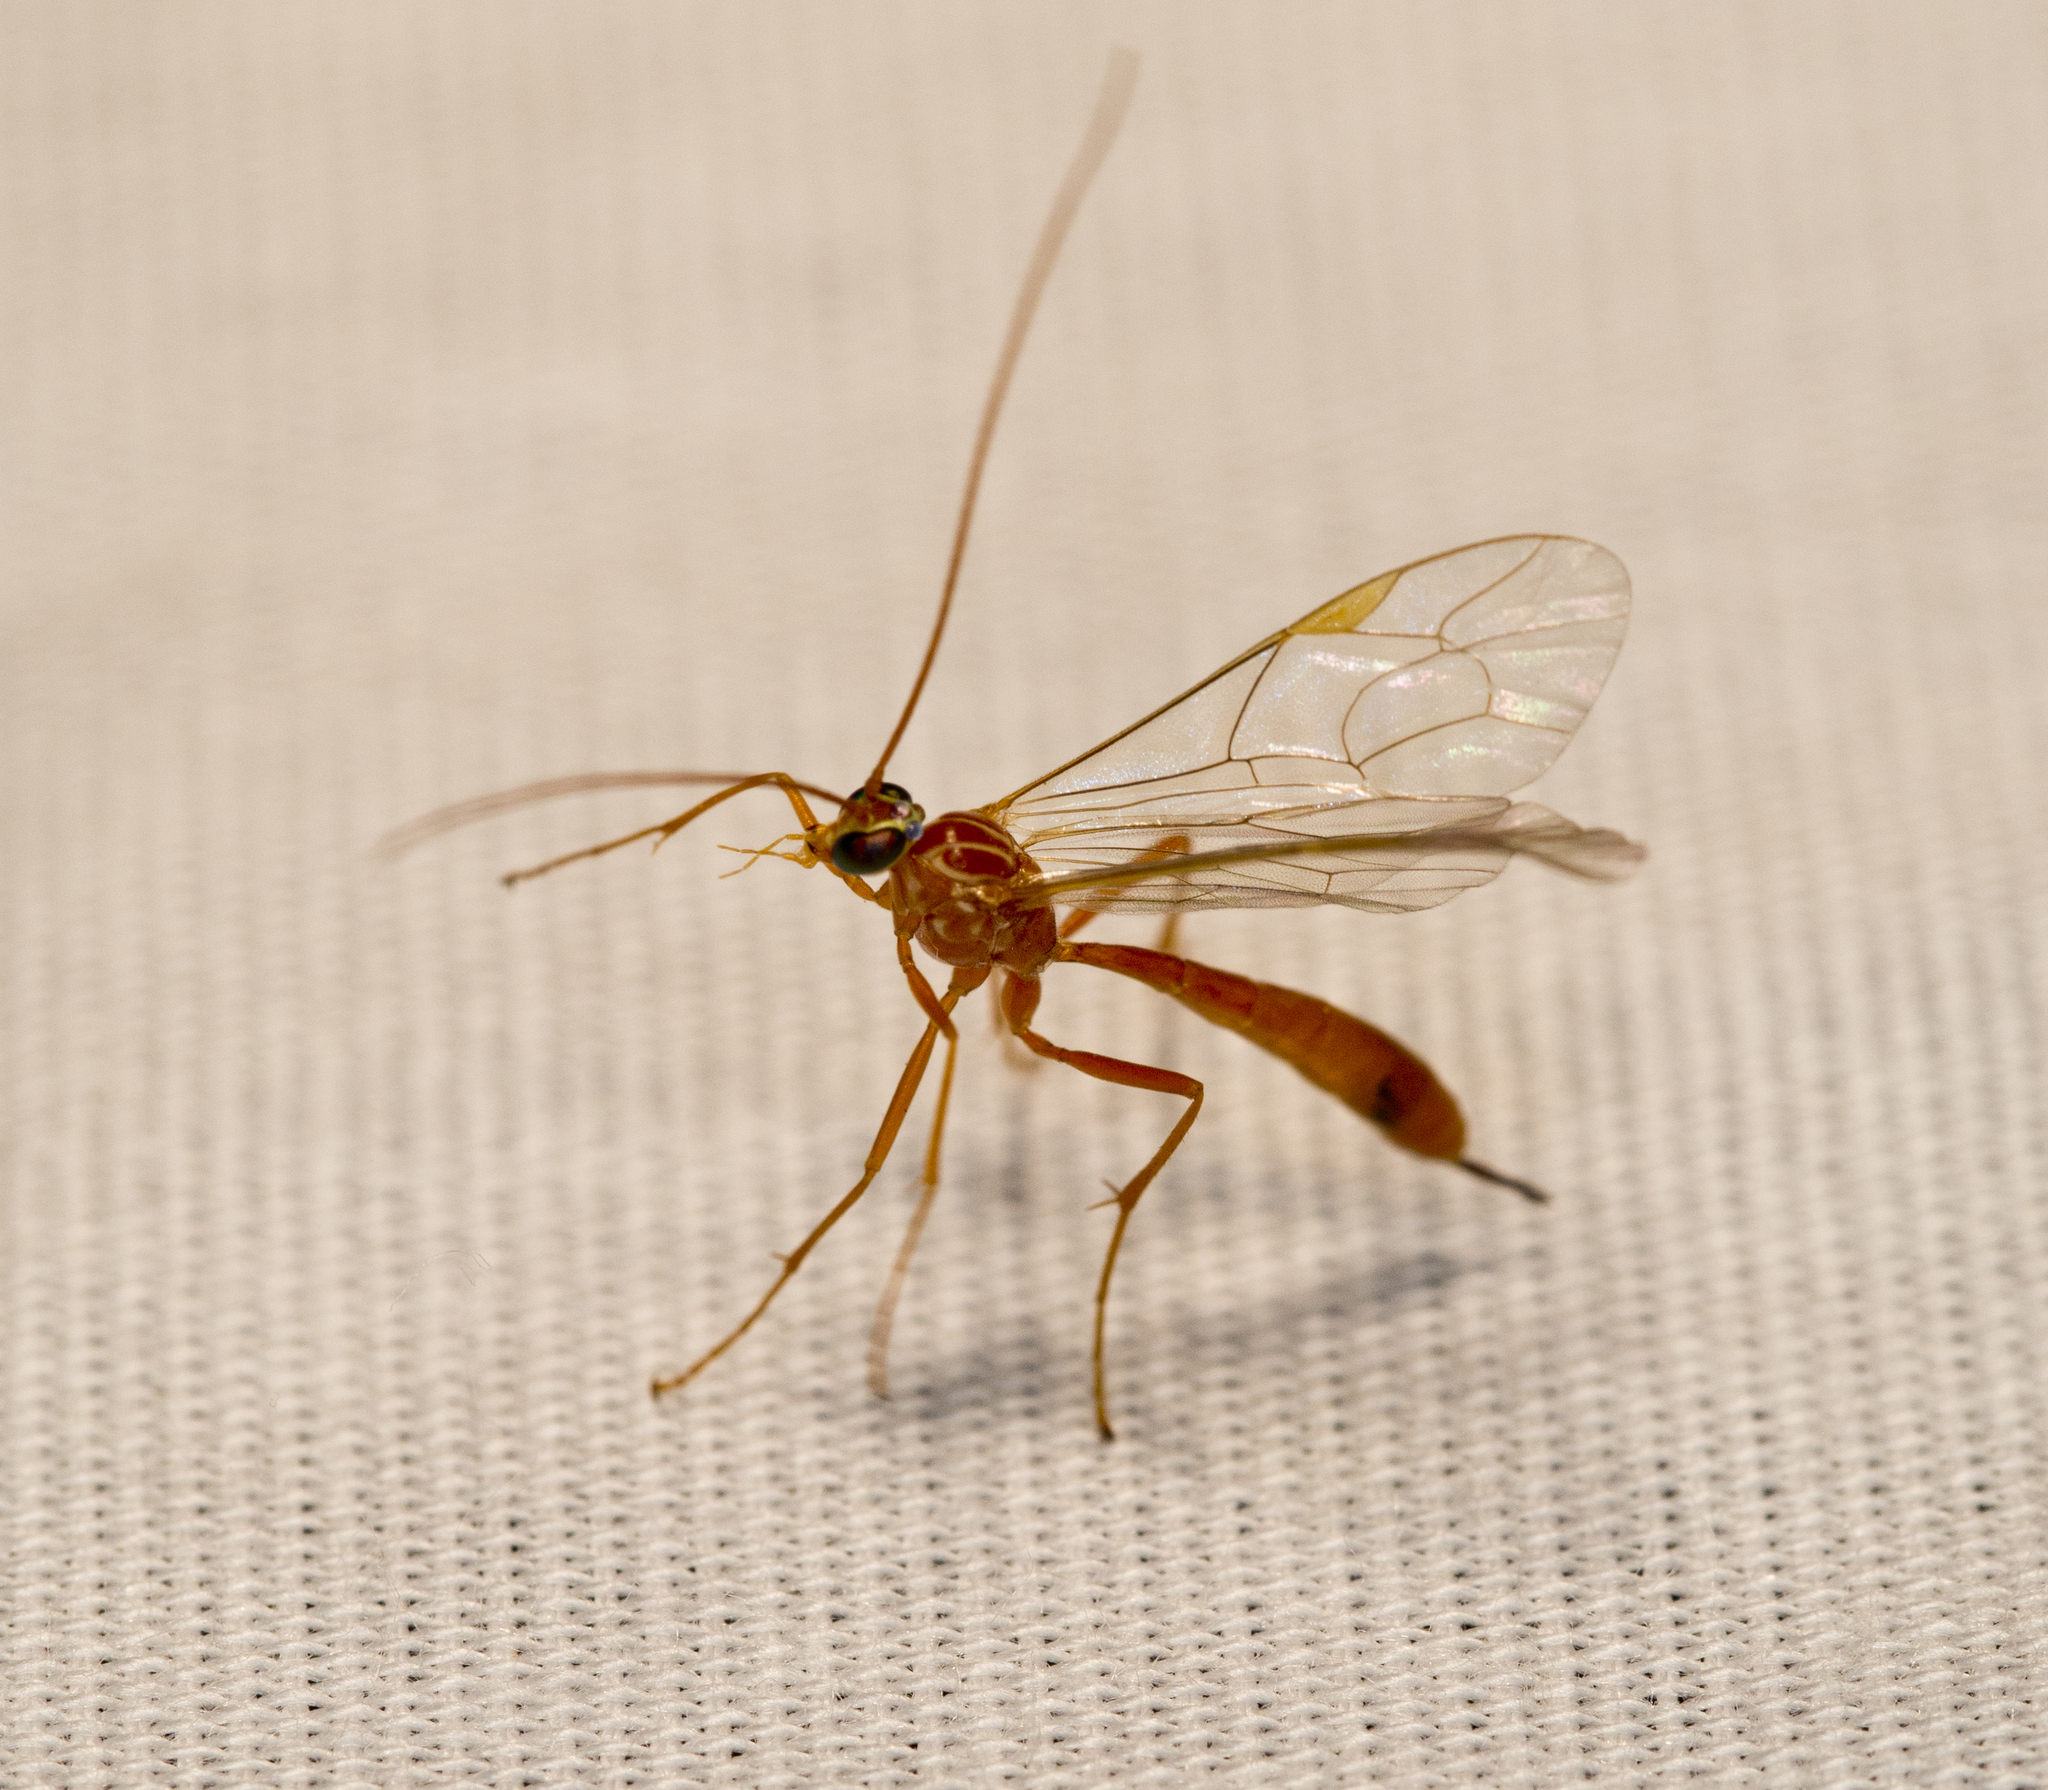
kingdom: Animalia
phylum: Arthropoda
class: Insecta
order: Hymenoptera
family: Ichneumonidae
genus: Netelia
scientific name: Netelia
